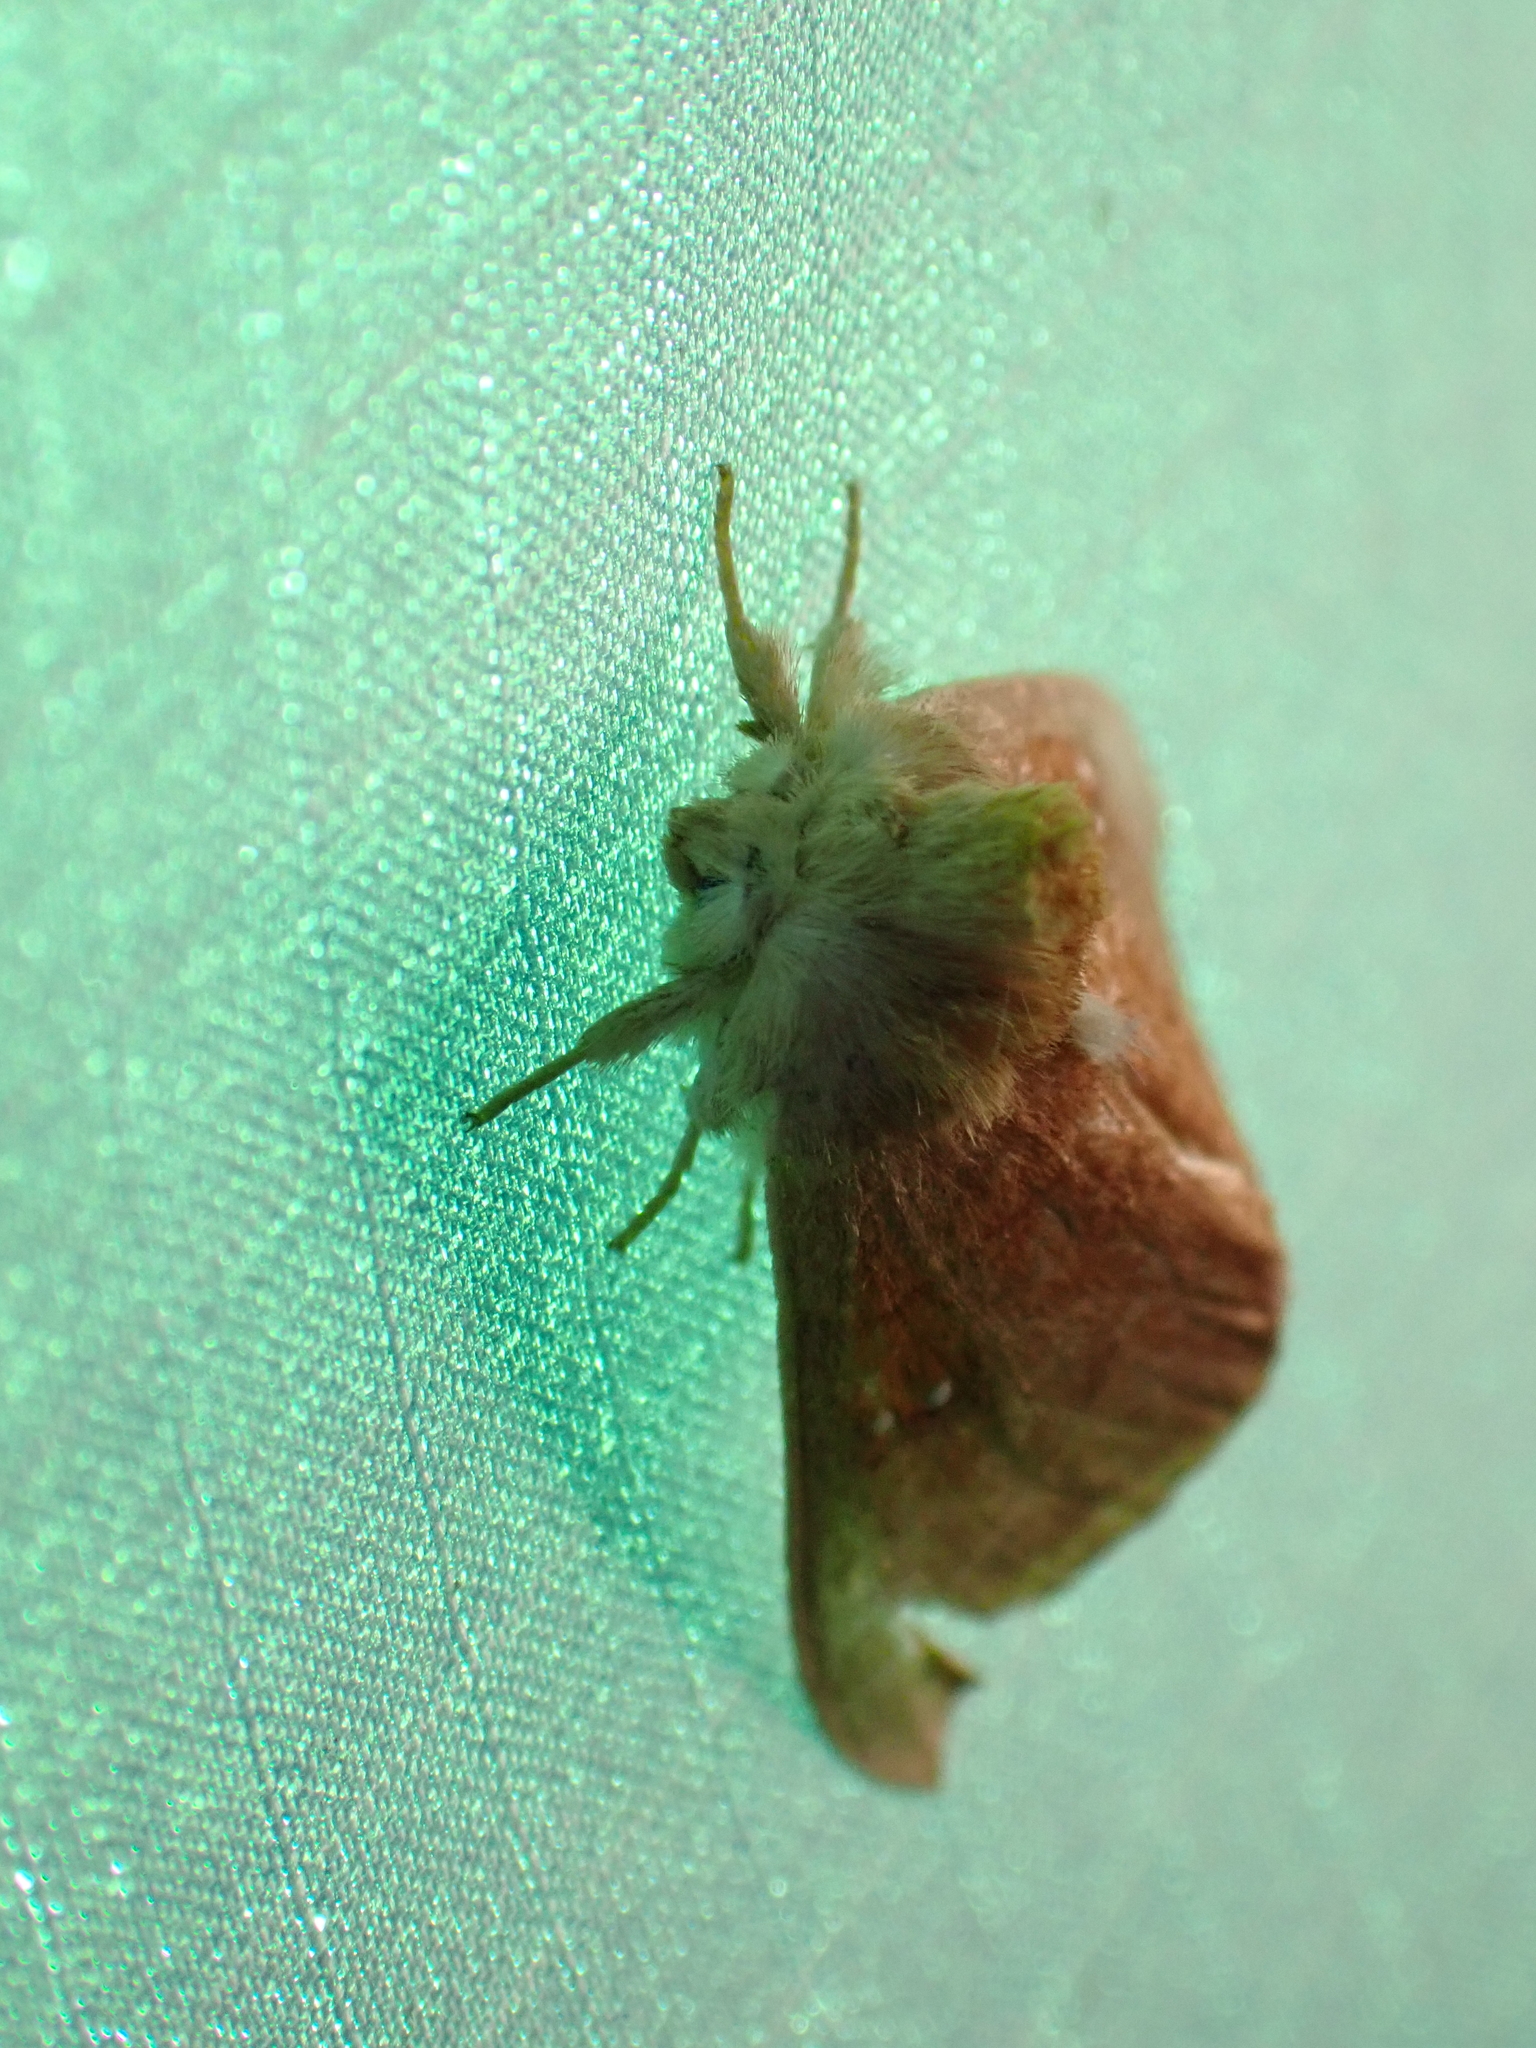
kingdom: Animalia
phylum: Arthropoda
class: Insecta
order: Lepidoptera
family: Notodontidae
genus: Nadata
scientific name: Nadata gibbosa
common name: White-dotted prominent
